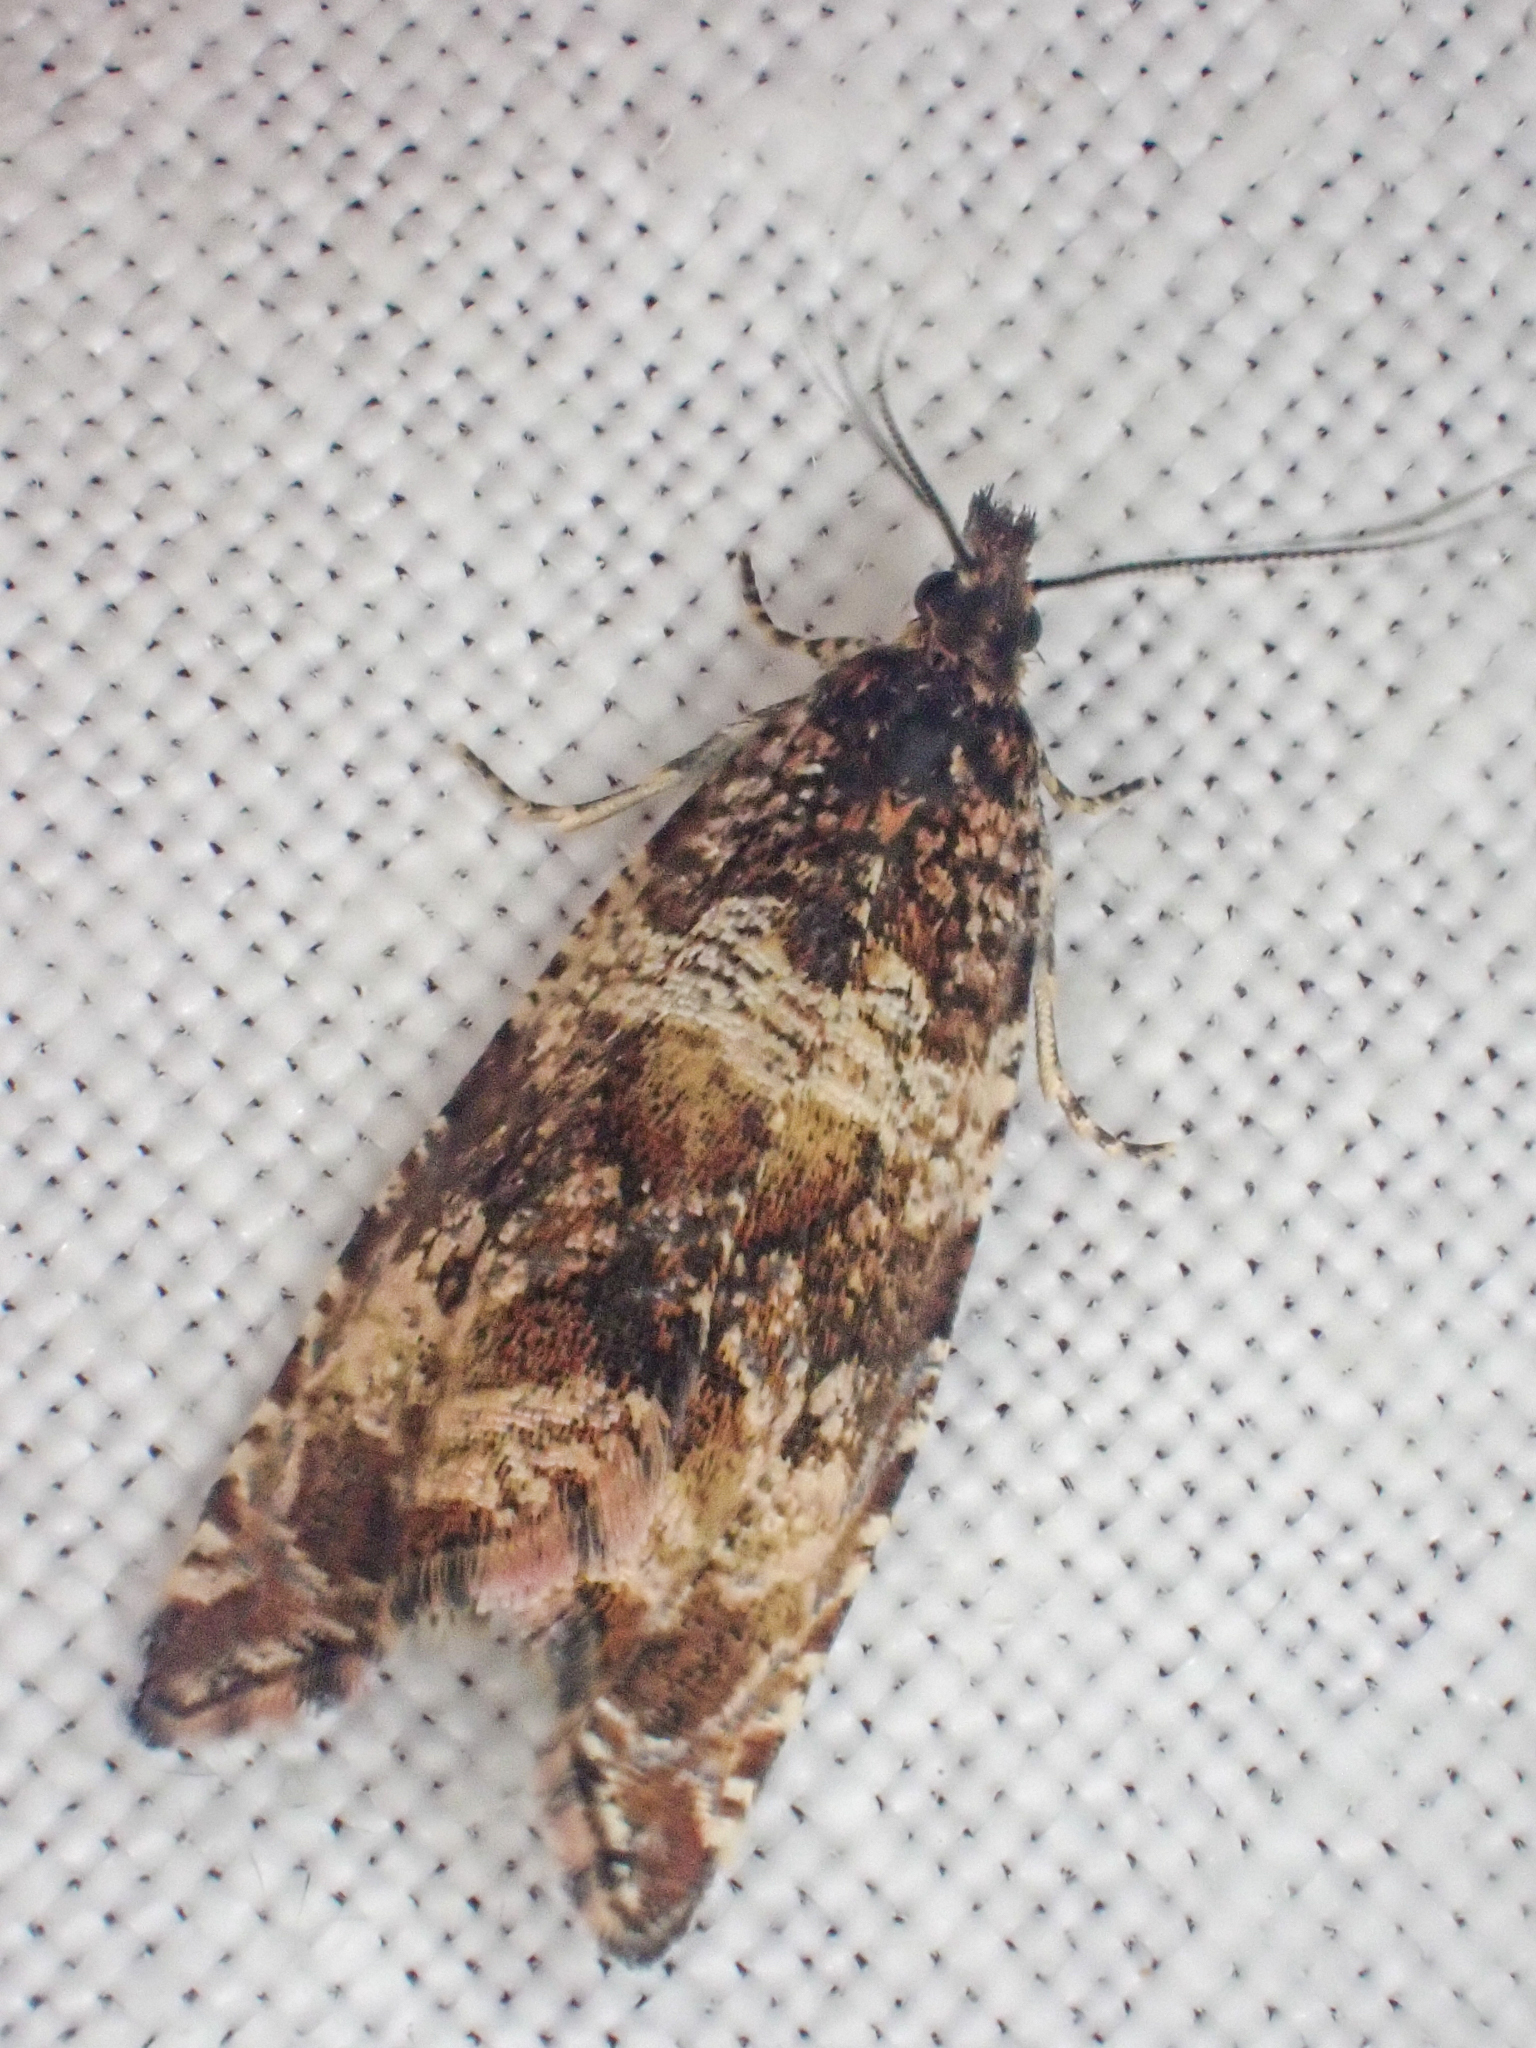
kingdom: Animalia
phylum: Arthropoda
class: Insecta
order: Lepidoptera
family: Tortricidae
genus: Celypha
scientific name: Celypha cespitana
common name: Thyme marble
